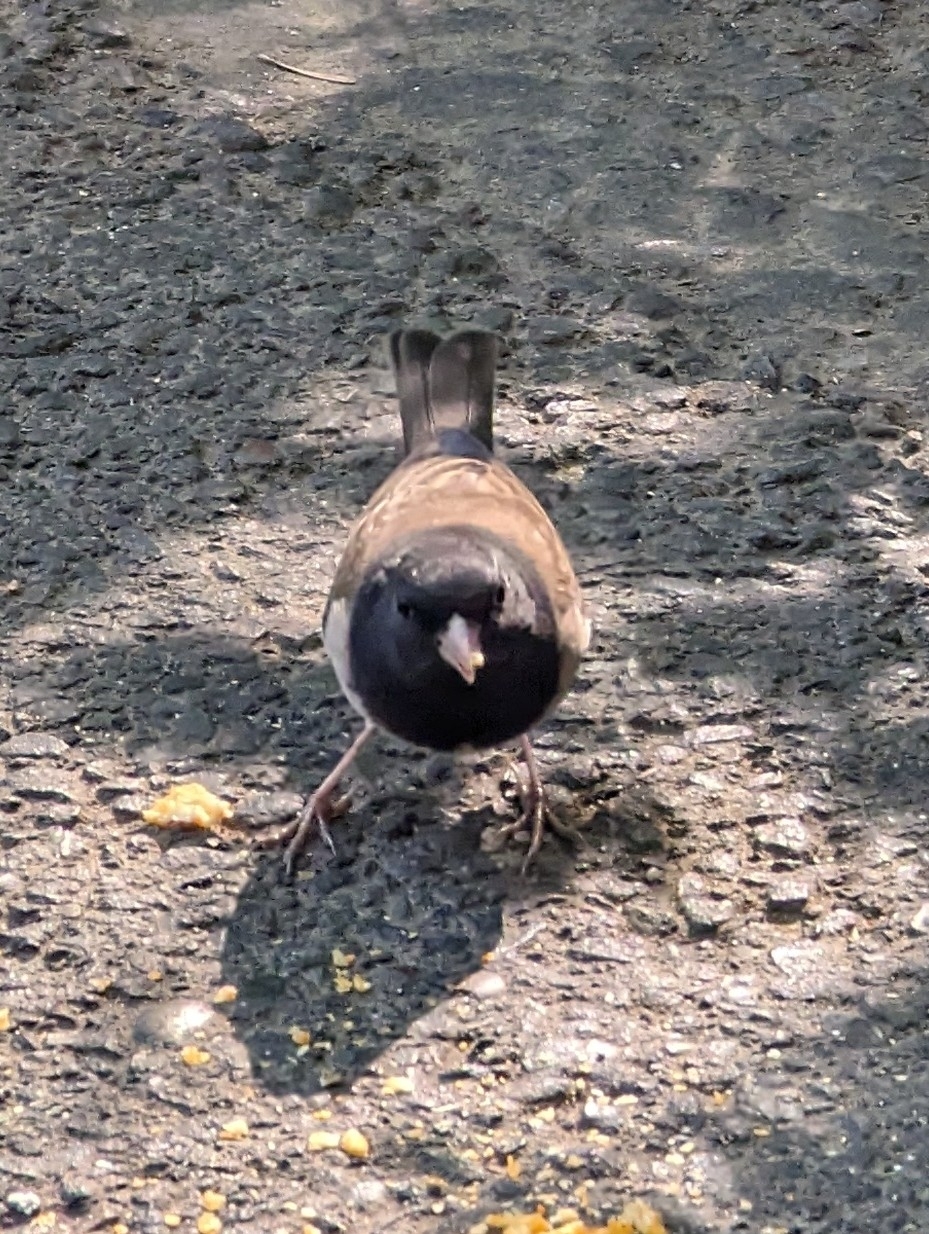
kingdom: Animalia
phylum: Chordata
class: Aves
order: Passeriformes
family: Passerellidae
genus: Junco
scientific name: Junco hyemalis
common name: Dark-eyed junco
